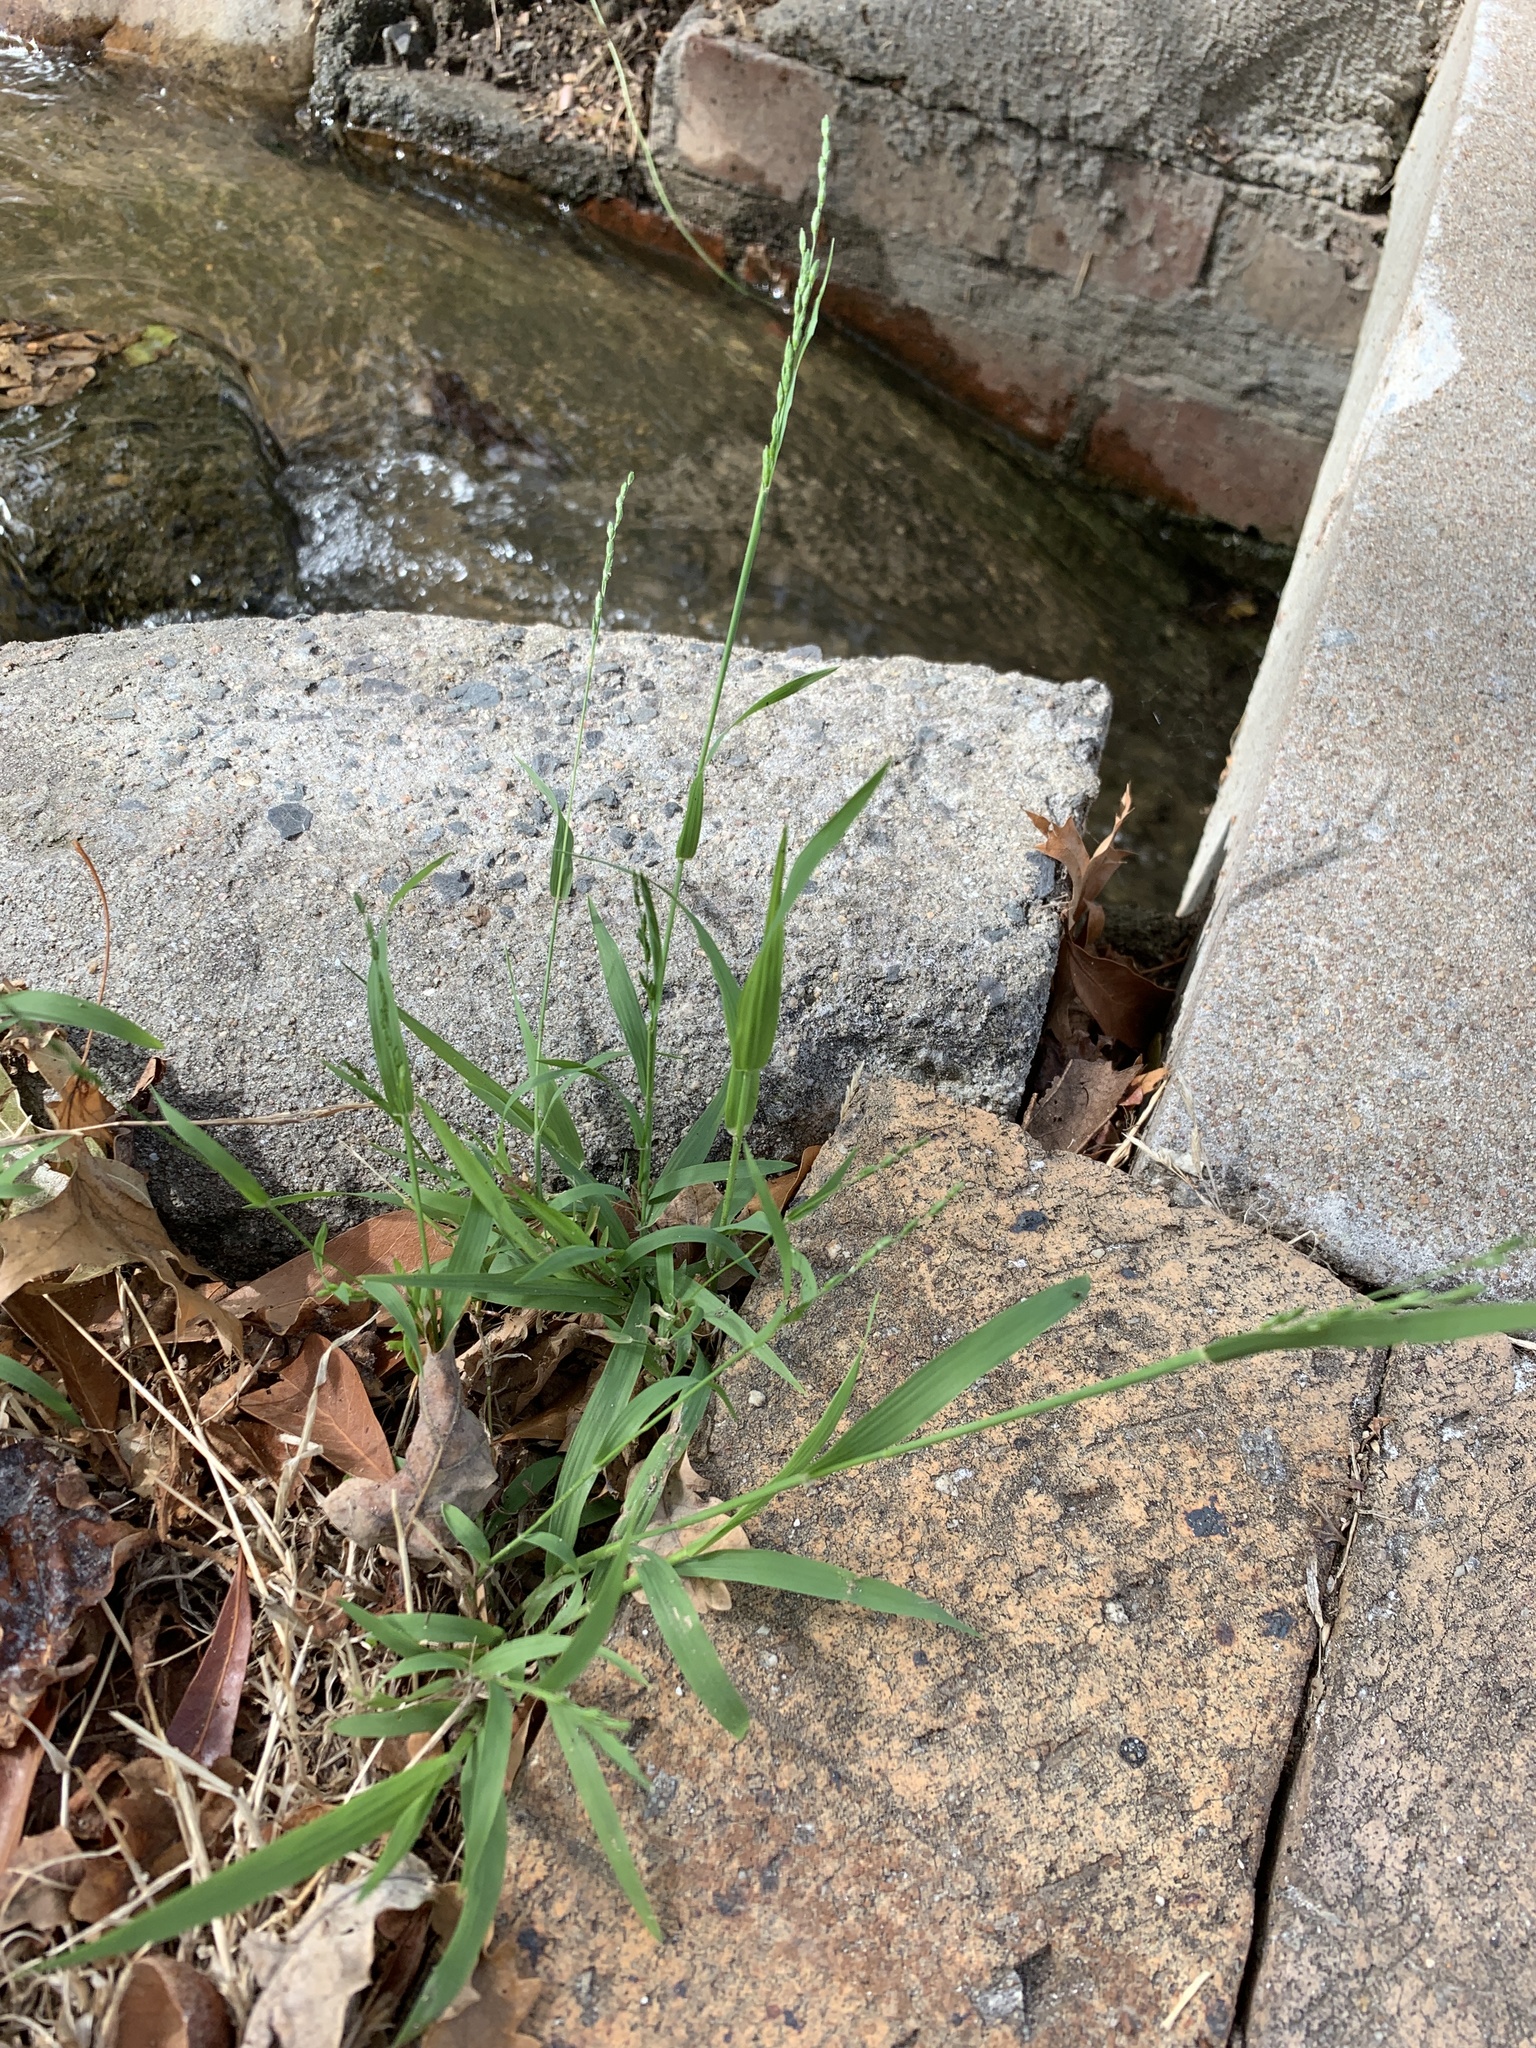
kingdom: Plantae
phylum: Tracheophyta
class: Liliopsida
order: Poales
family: Poaceae
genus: Ehrharta
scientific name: Ehrharta erecta
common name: Panic veldtgrass
